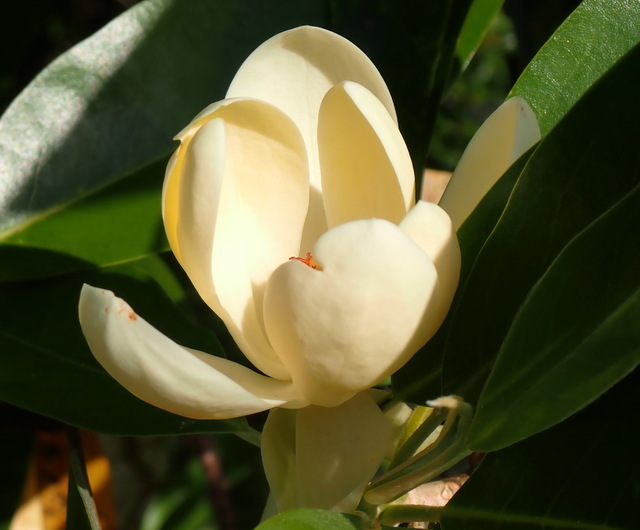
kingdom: Plantae
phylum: Tracheophyta
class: Magnoliopsida
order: Magnoliales
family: Magnoliaceae
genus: Magnolia
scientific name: Magnolia virginiana
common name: Swamp bay
